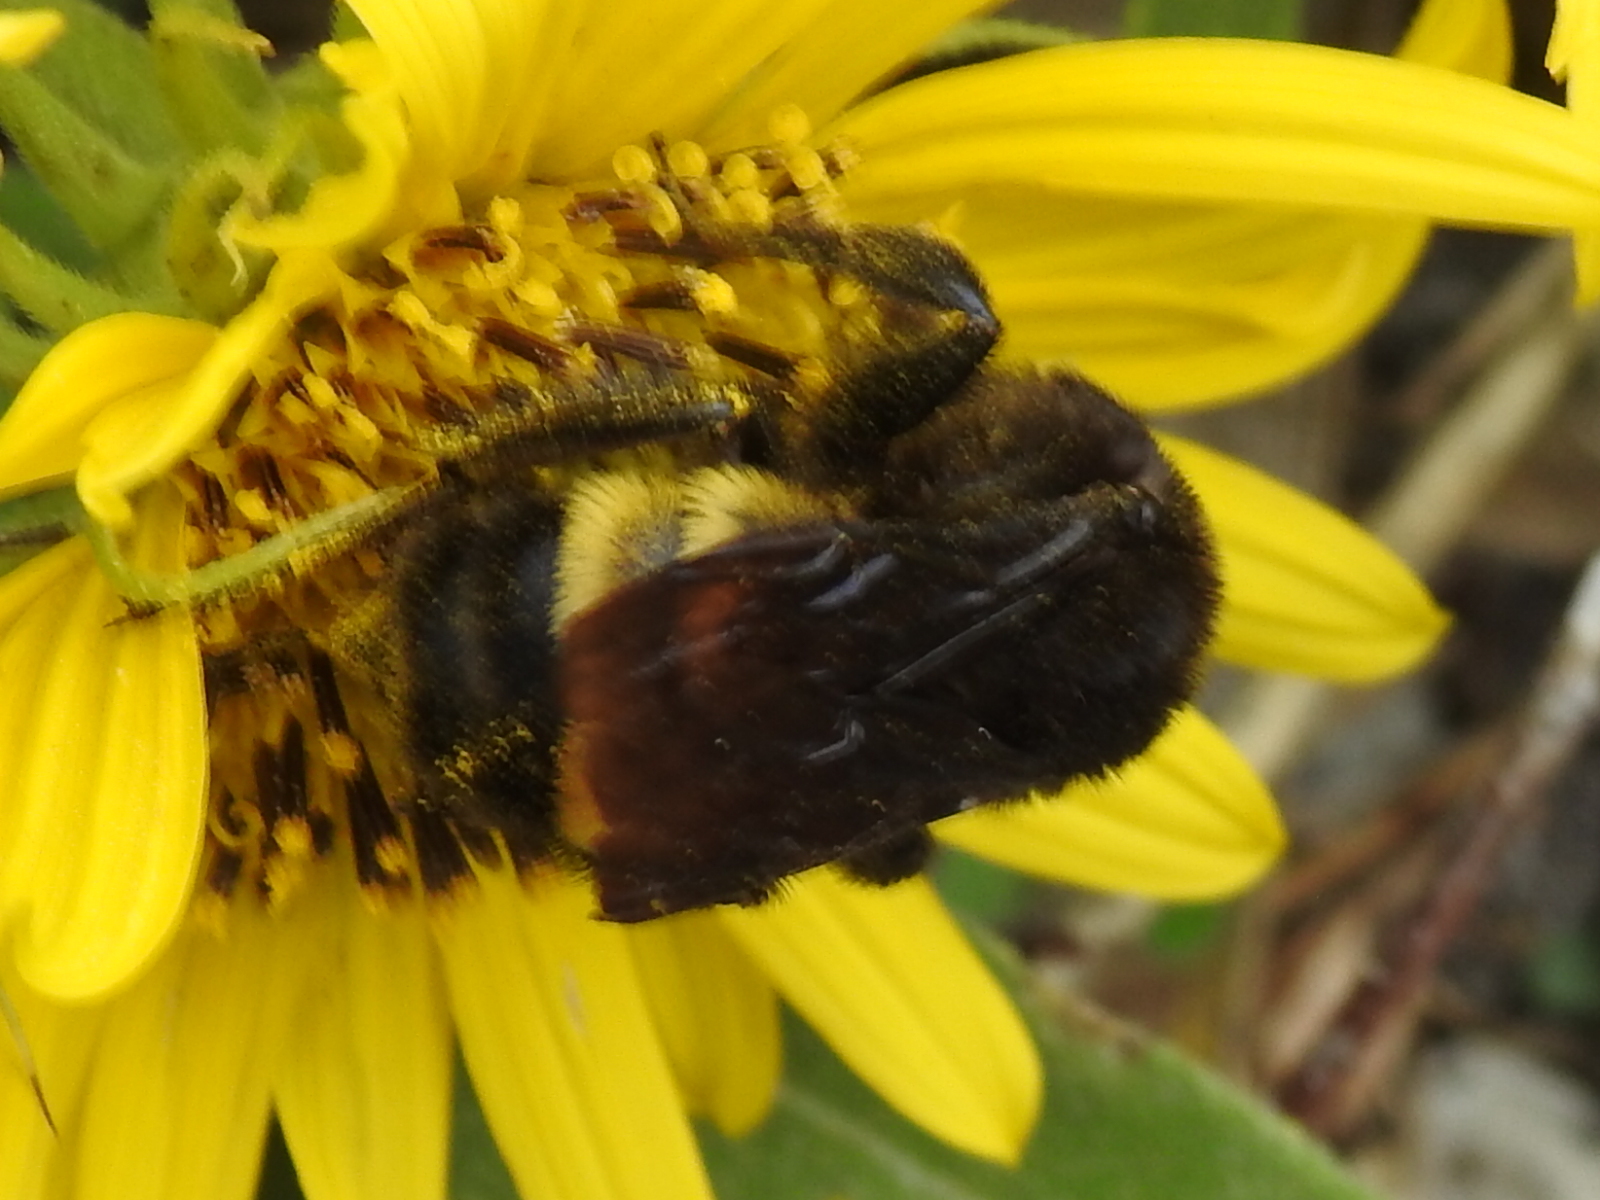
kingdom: Animalia
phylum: Arthropoda
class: Insecta
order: Hymenoptera
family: Apidae
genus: Bombus
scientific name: Bombus pensylvanicus
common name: Bumble bee
